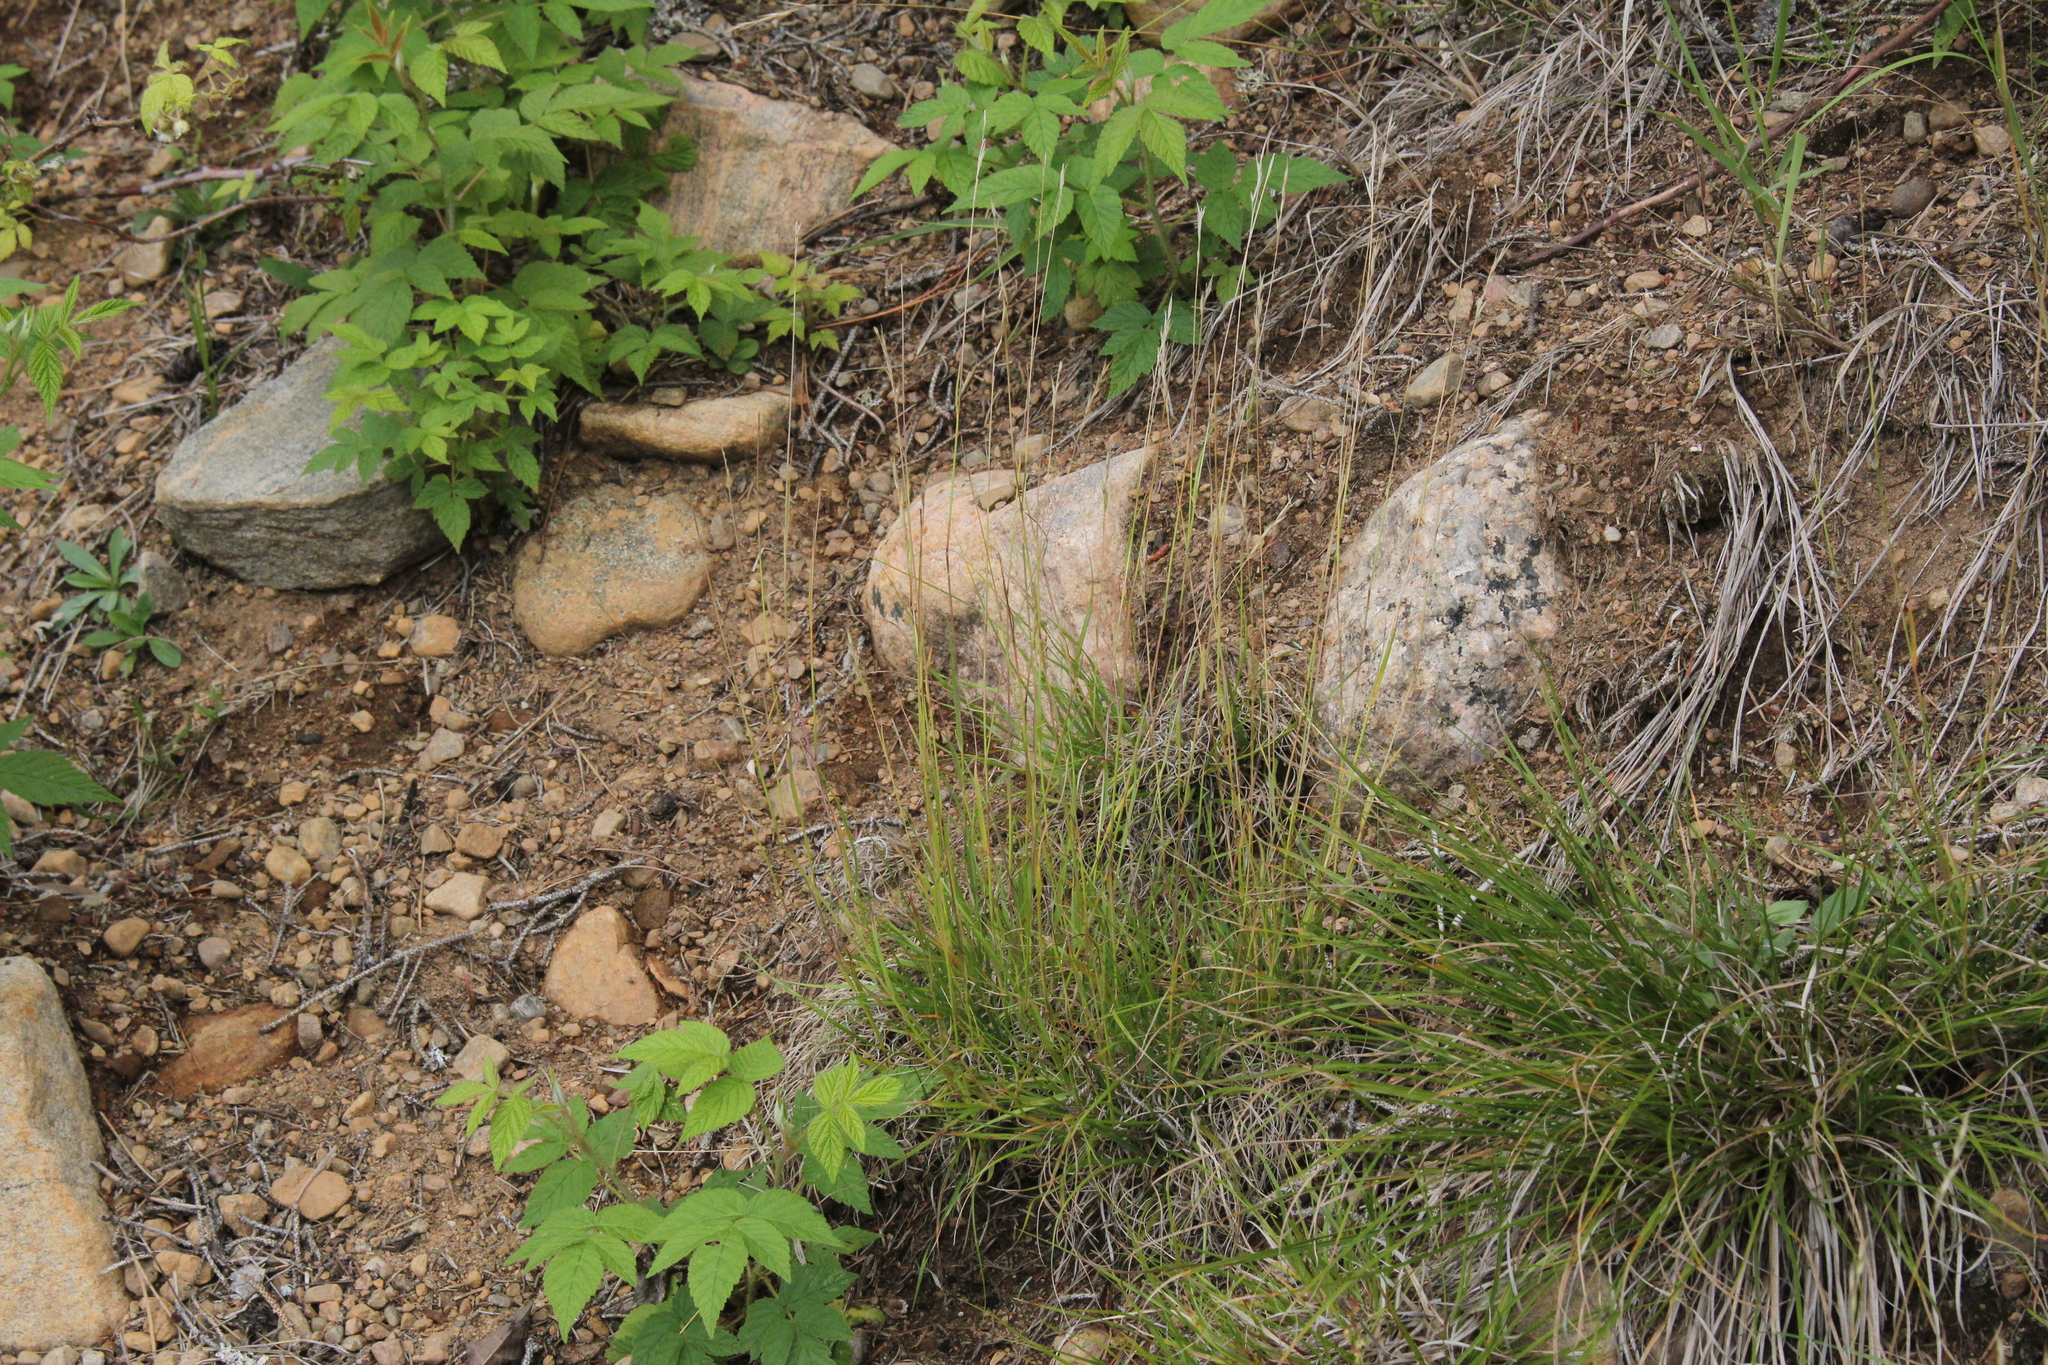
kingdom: Plantae
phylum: Tracheophyta
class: Liliopsida
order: Poales
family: Poaceae
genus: Danthonia
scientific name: Danthonia spicata
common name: Common wild oatgrass
